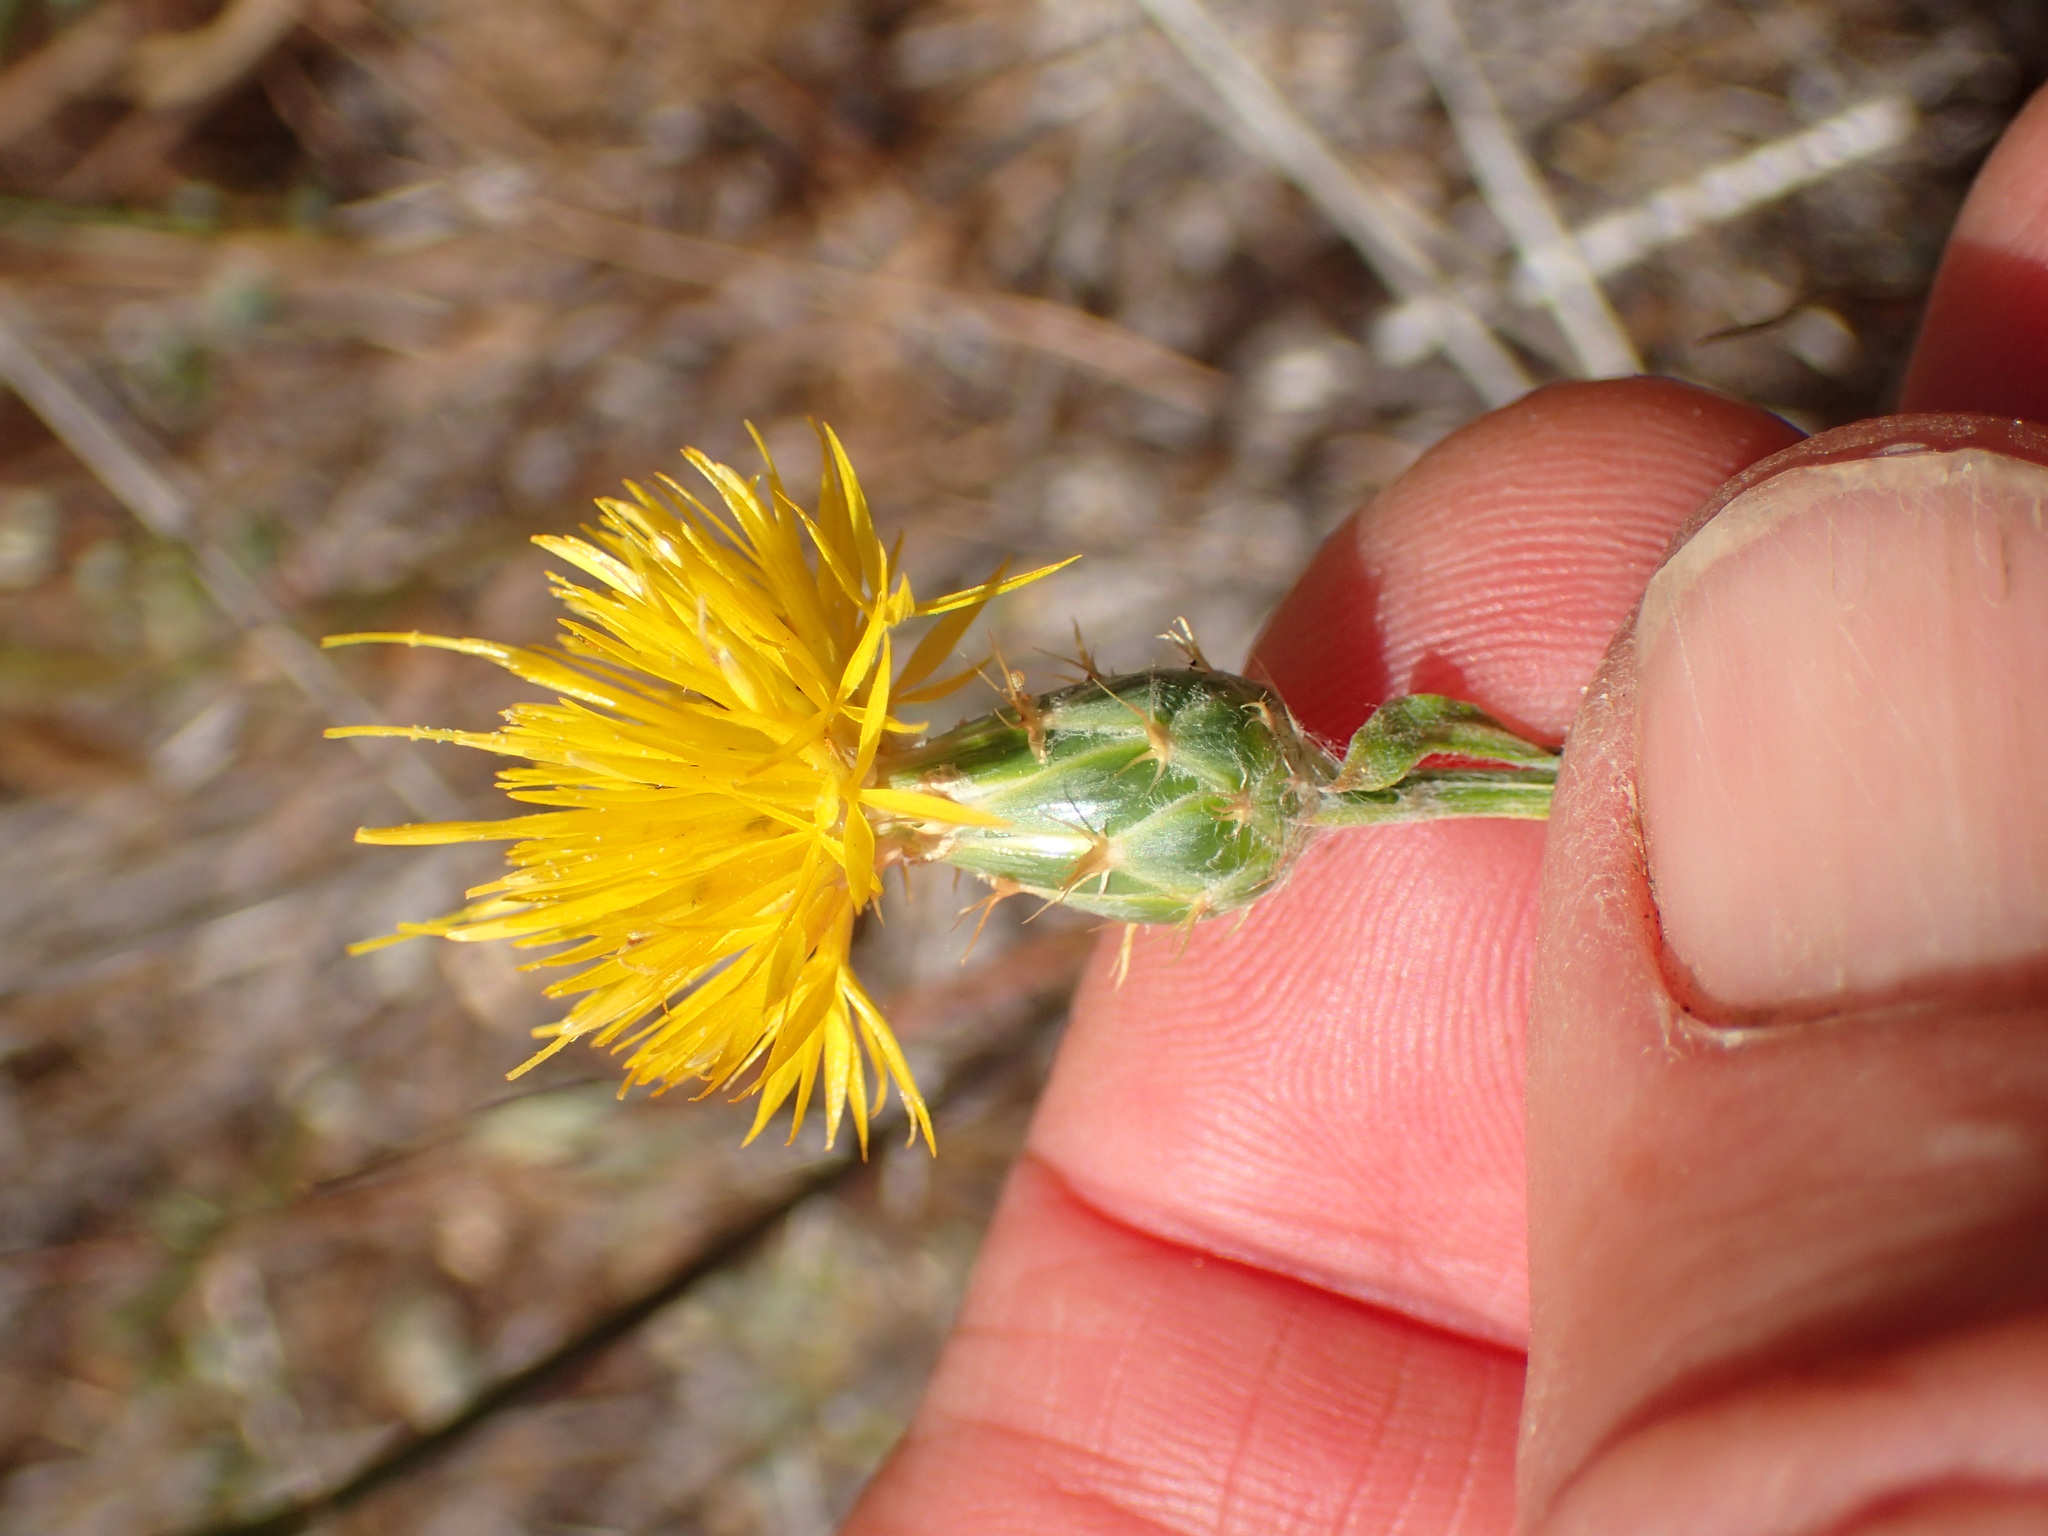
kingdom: Plantae
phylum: Tracheophyta
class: Magnoliopsida
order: Asterales
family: Asteraceae
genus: Centaurea
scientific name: Centaurea solstitialis
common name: Yellow star-thistle
